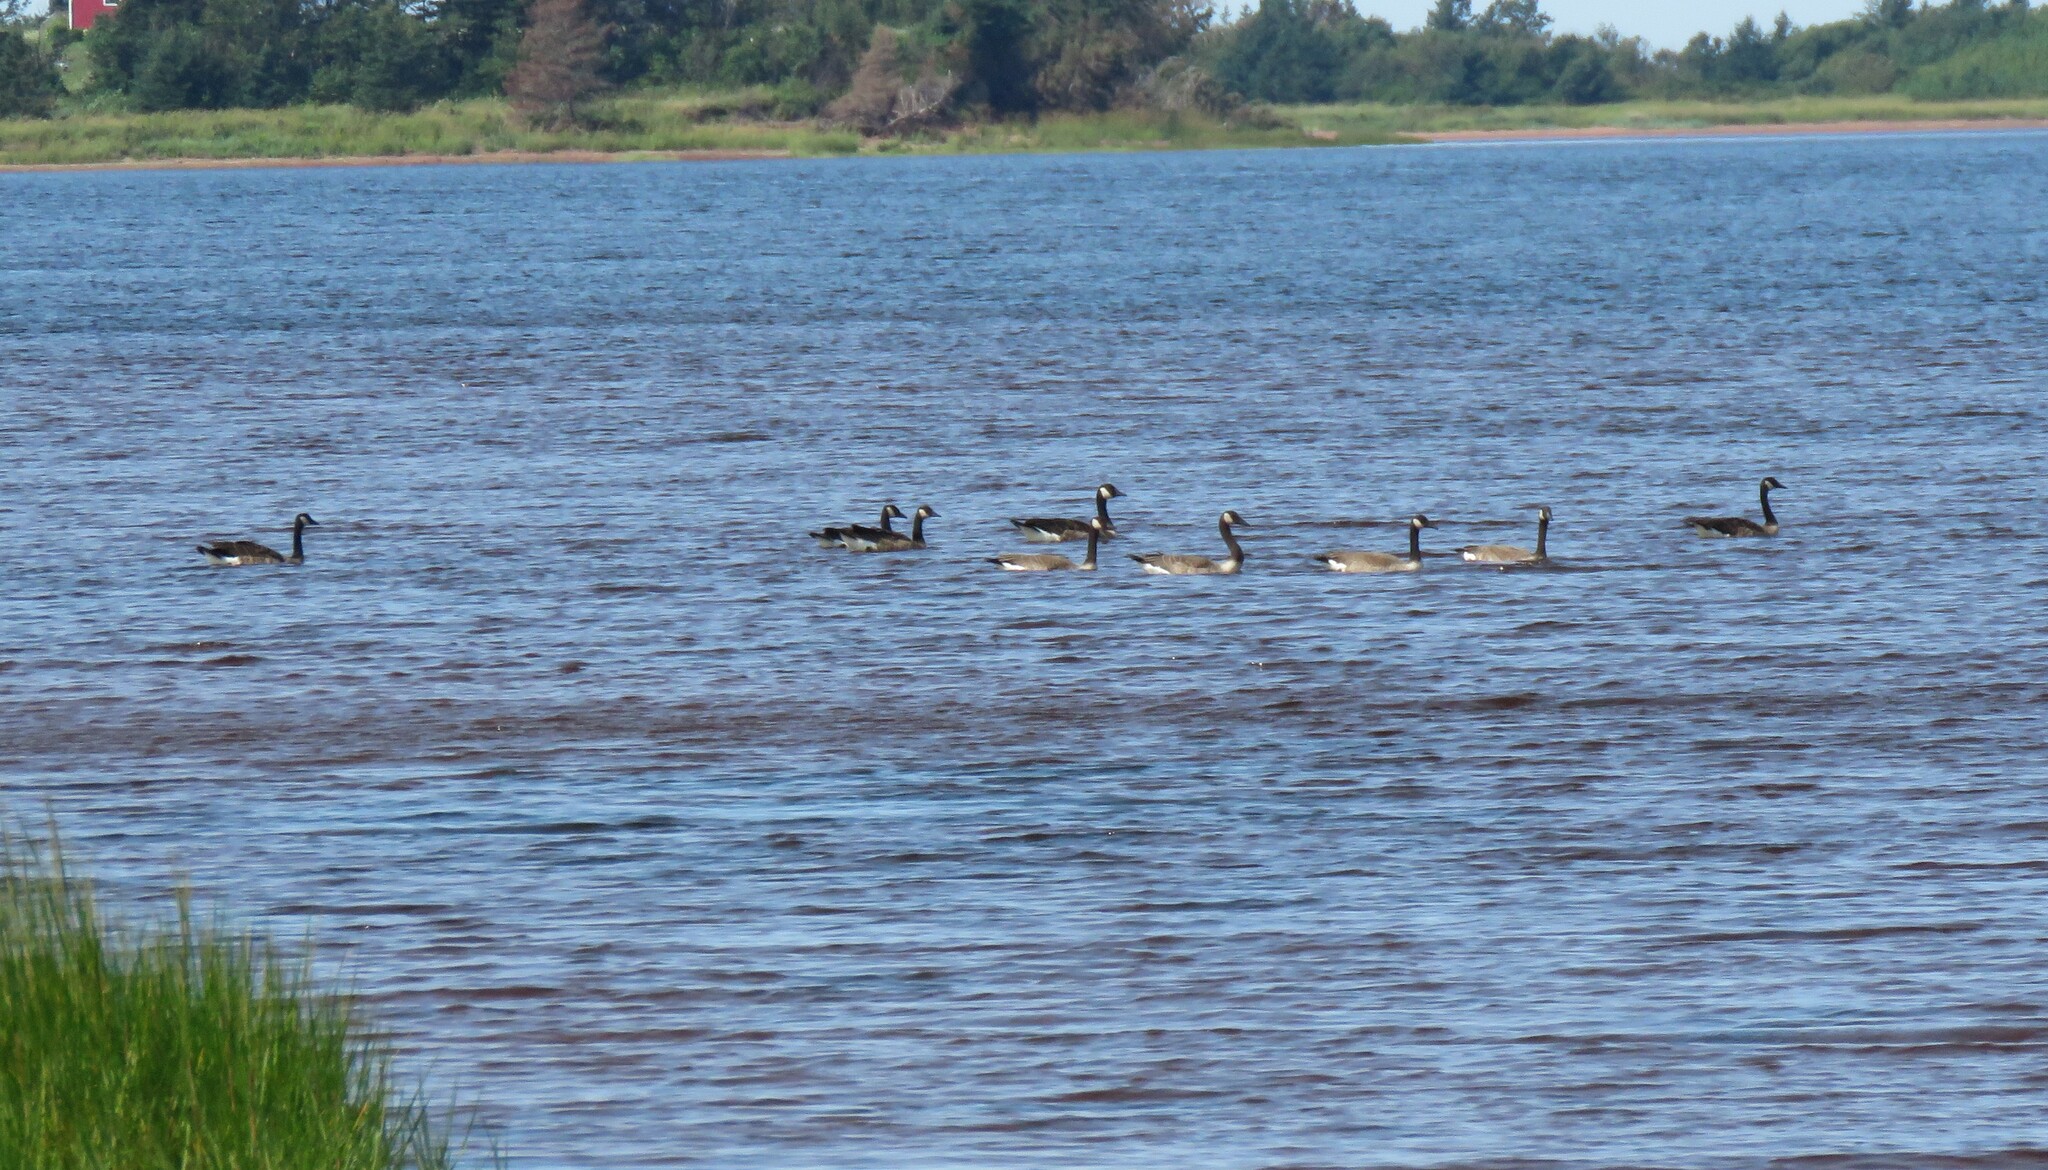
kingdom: Animalia
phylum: Chordata
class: Aves
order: Anseriformes
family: Anatidae
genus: Branta
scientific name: Branta canadensis
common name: Canada goose
